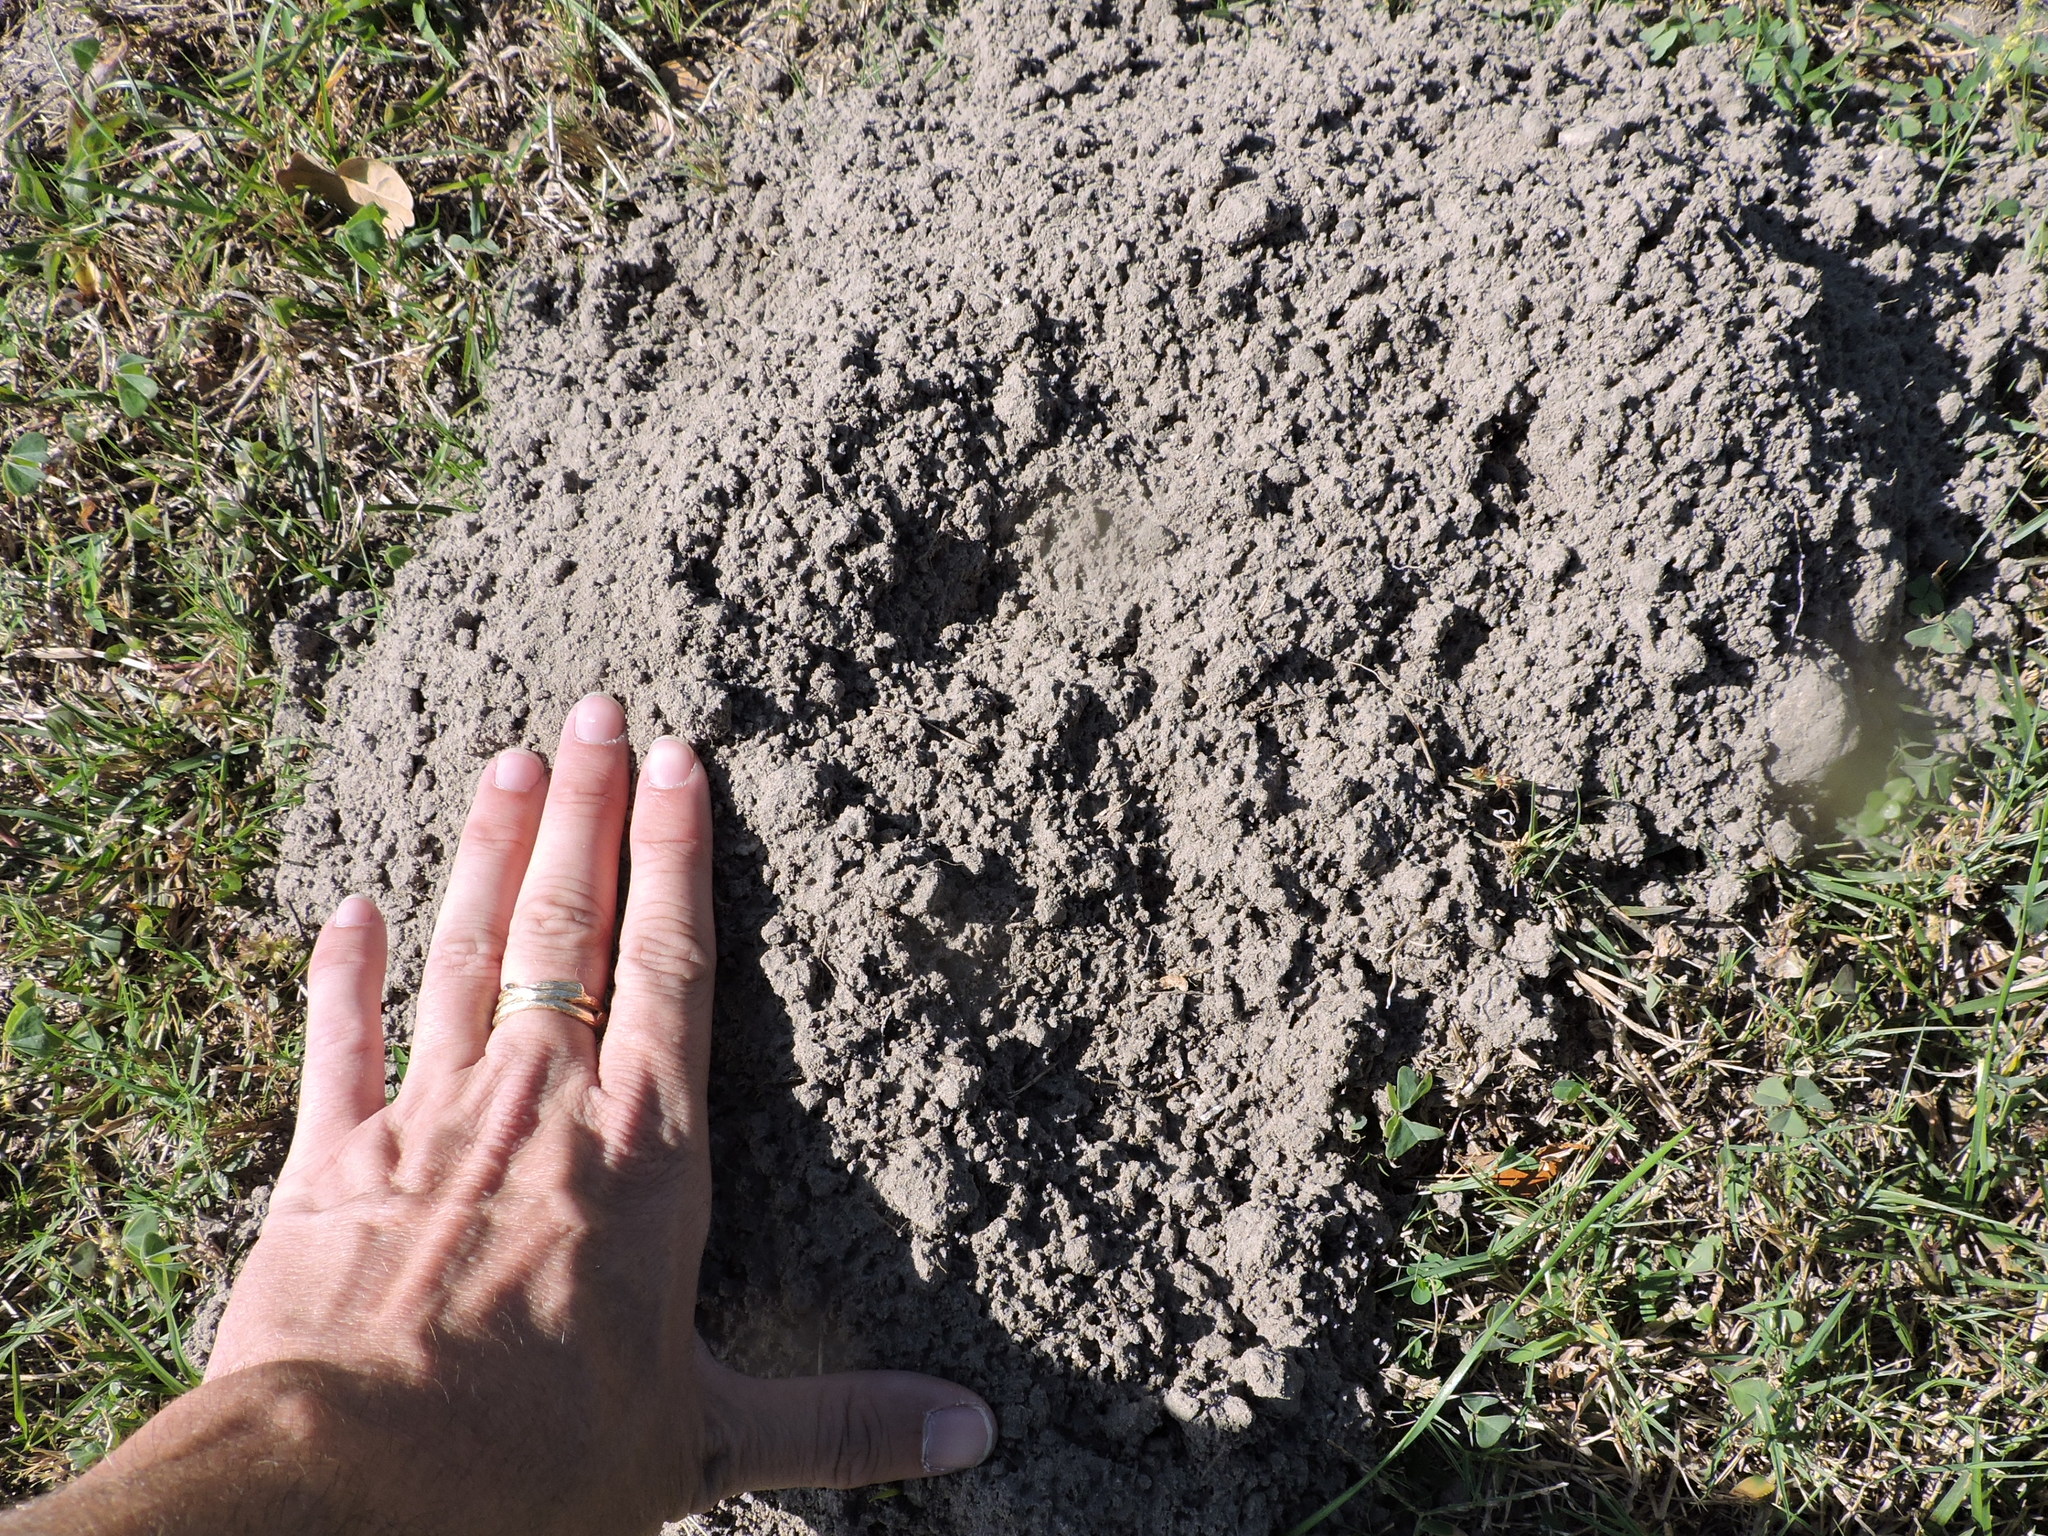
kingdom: Animalia
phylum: Chordata
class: Mammalia
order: Rodentia
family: Geomyidae
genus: Geomys
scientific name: Geomys attwateri
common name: Attwater's pocket gopher
